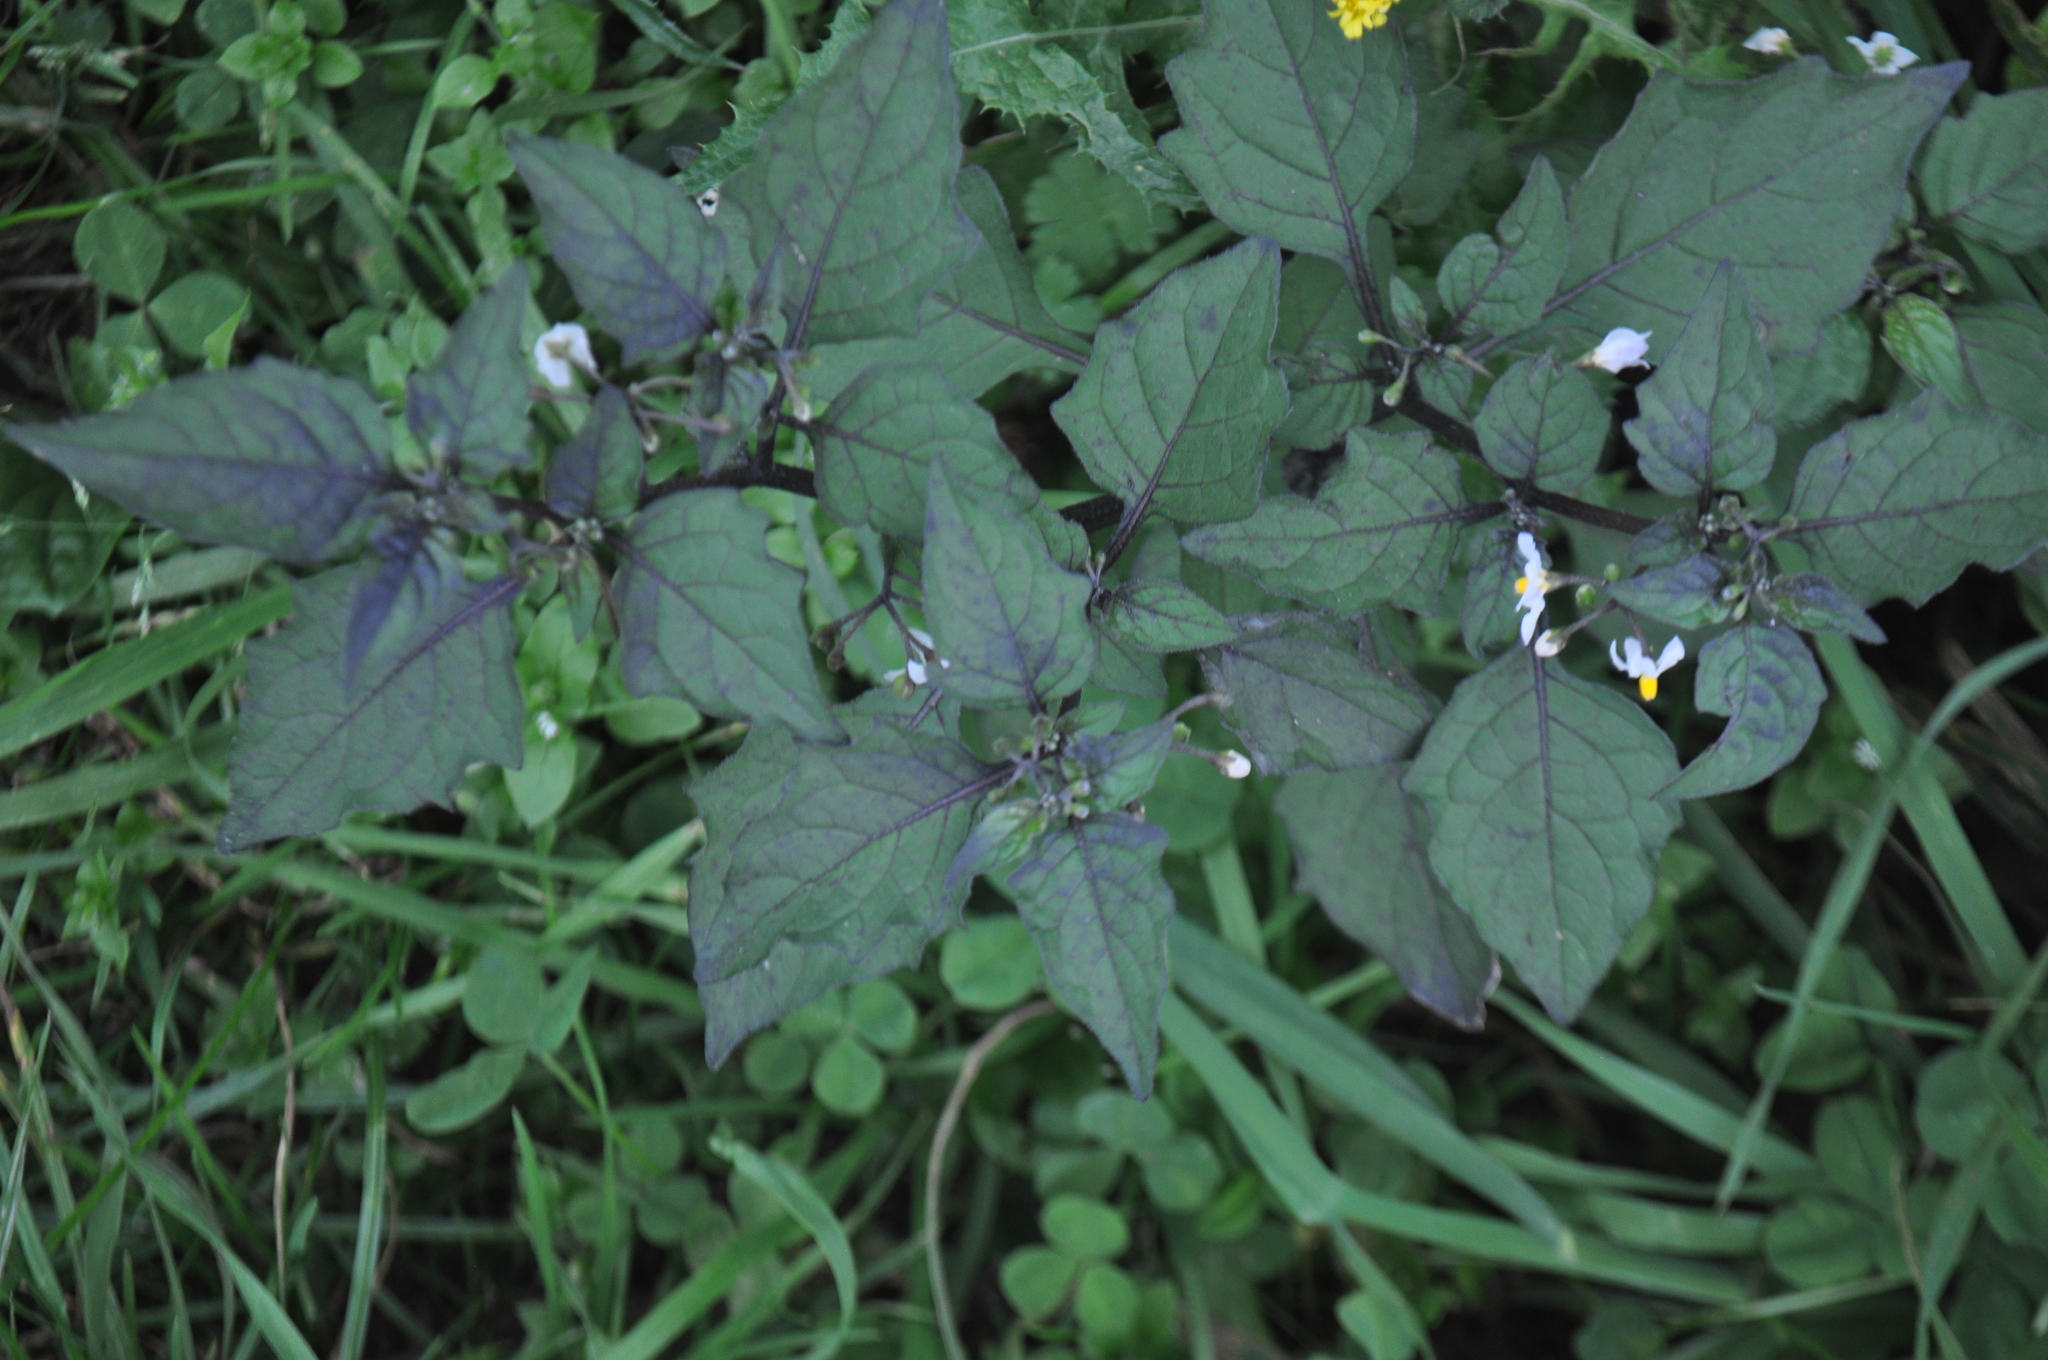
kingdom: Plantae
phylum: Tracheophyta
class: Magnoliopsida
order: Solanales
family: Solanaceae
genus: Solanum
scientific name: Solanum nigrum
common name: Black nightshade
